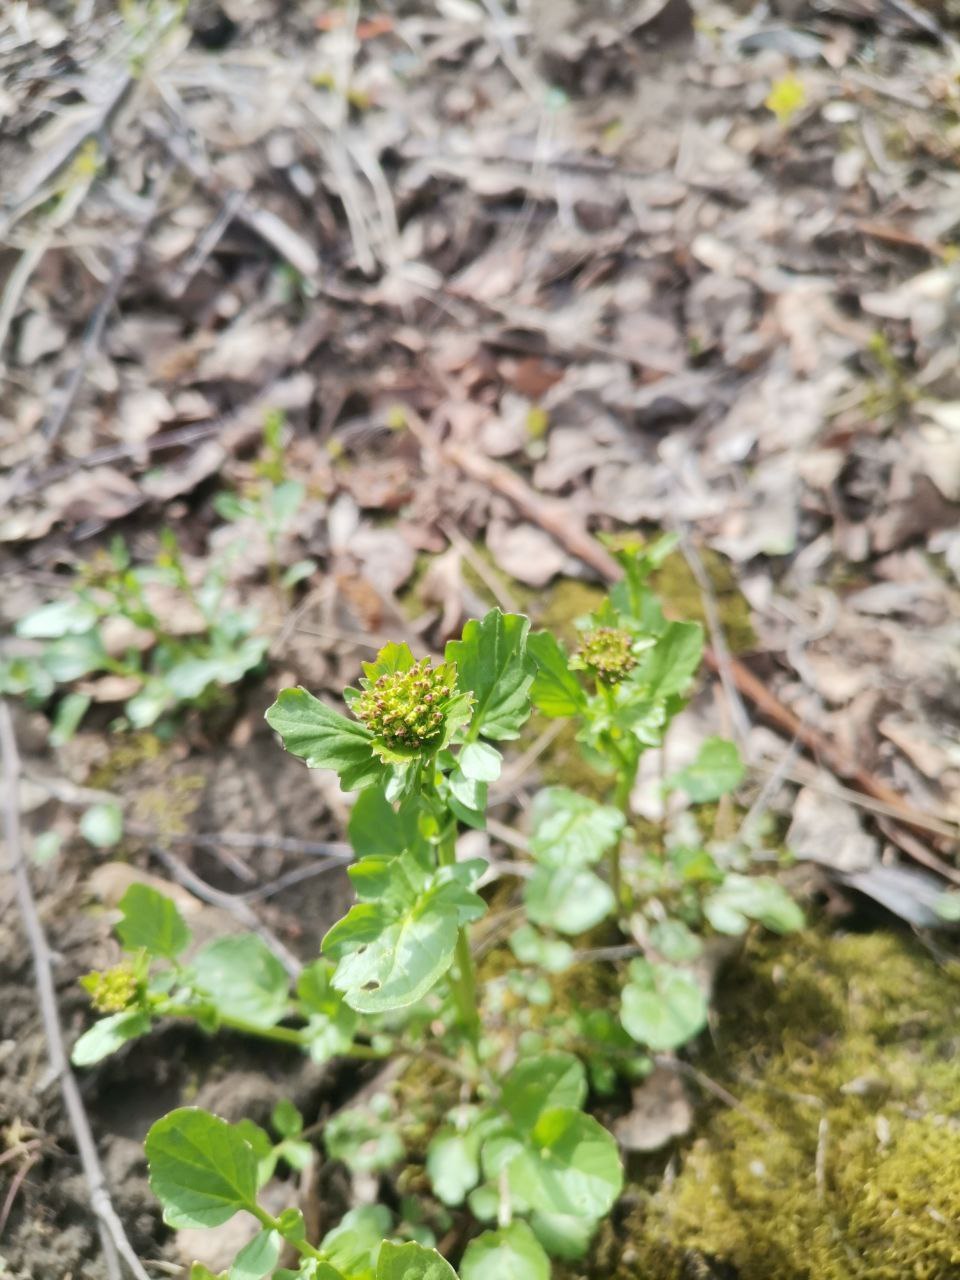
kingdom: Plantae
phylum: Tracheophyta
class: Magnoliopsida
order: Brassicales
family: Brassicaceae
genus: Barbarea
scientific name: Barbarea vulgaris
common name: Cressy-greens
